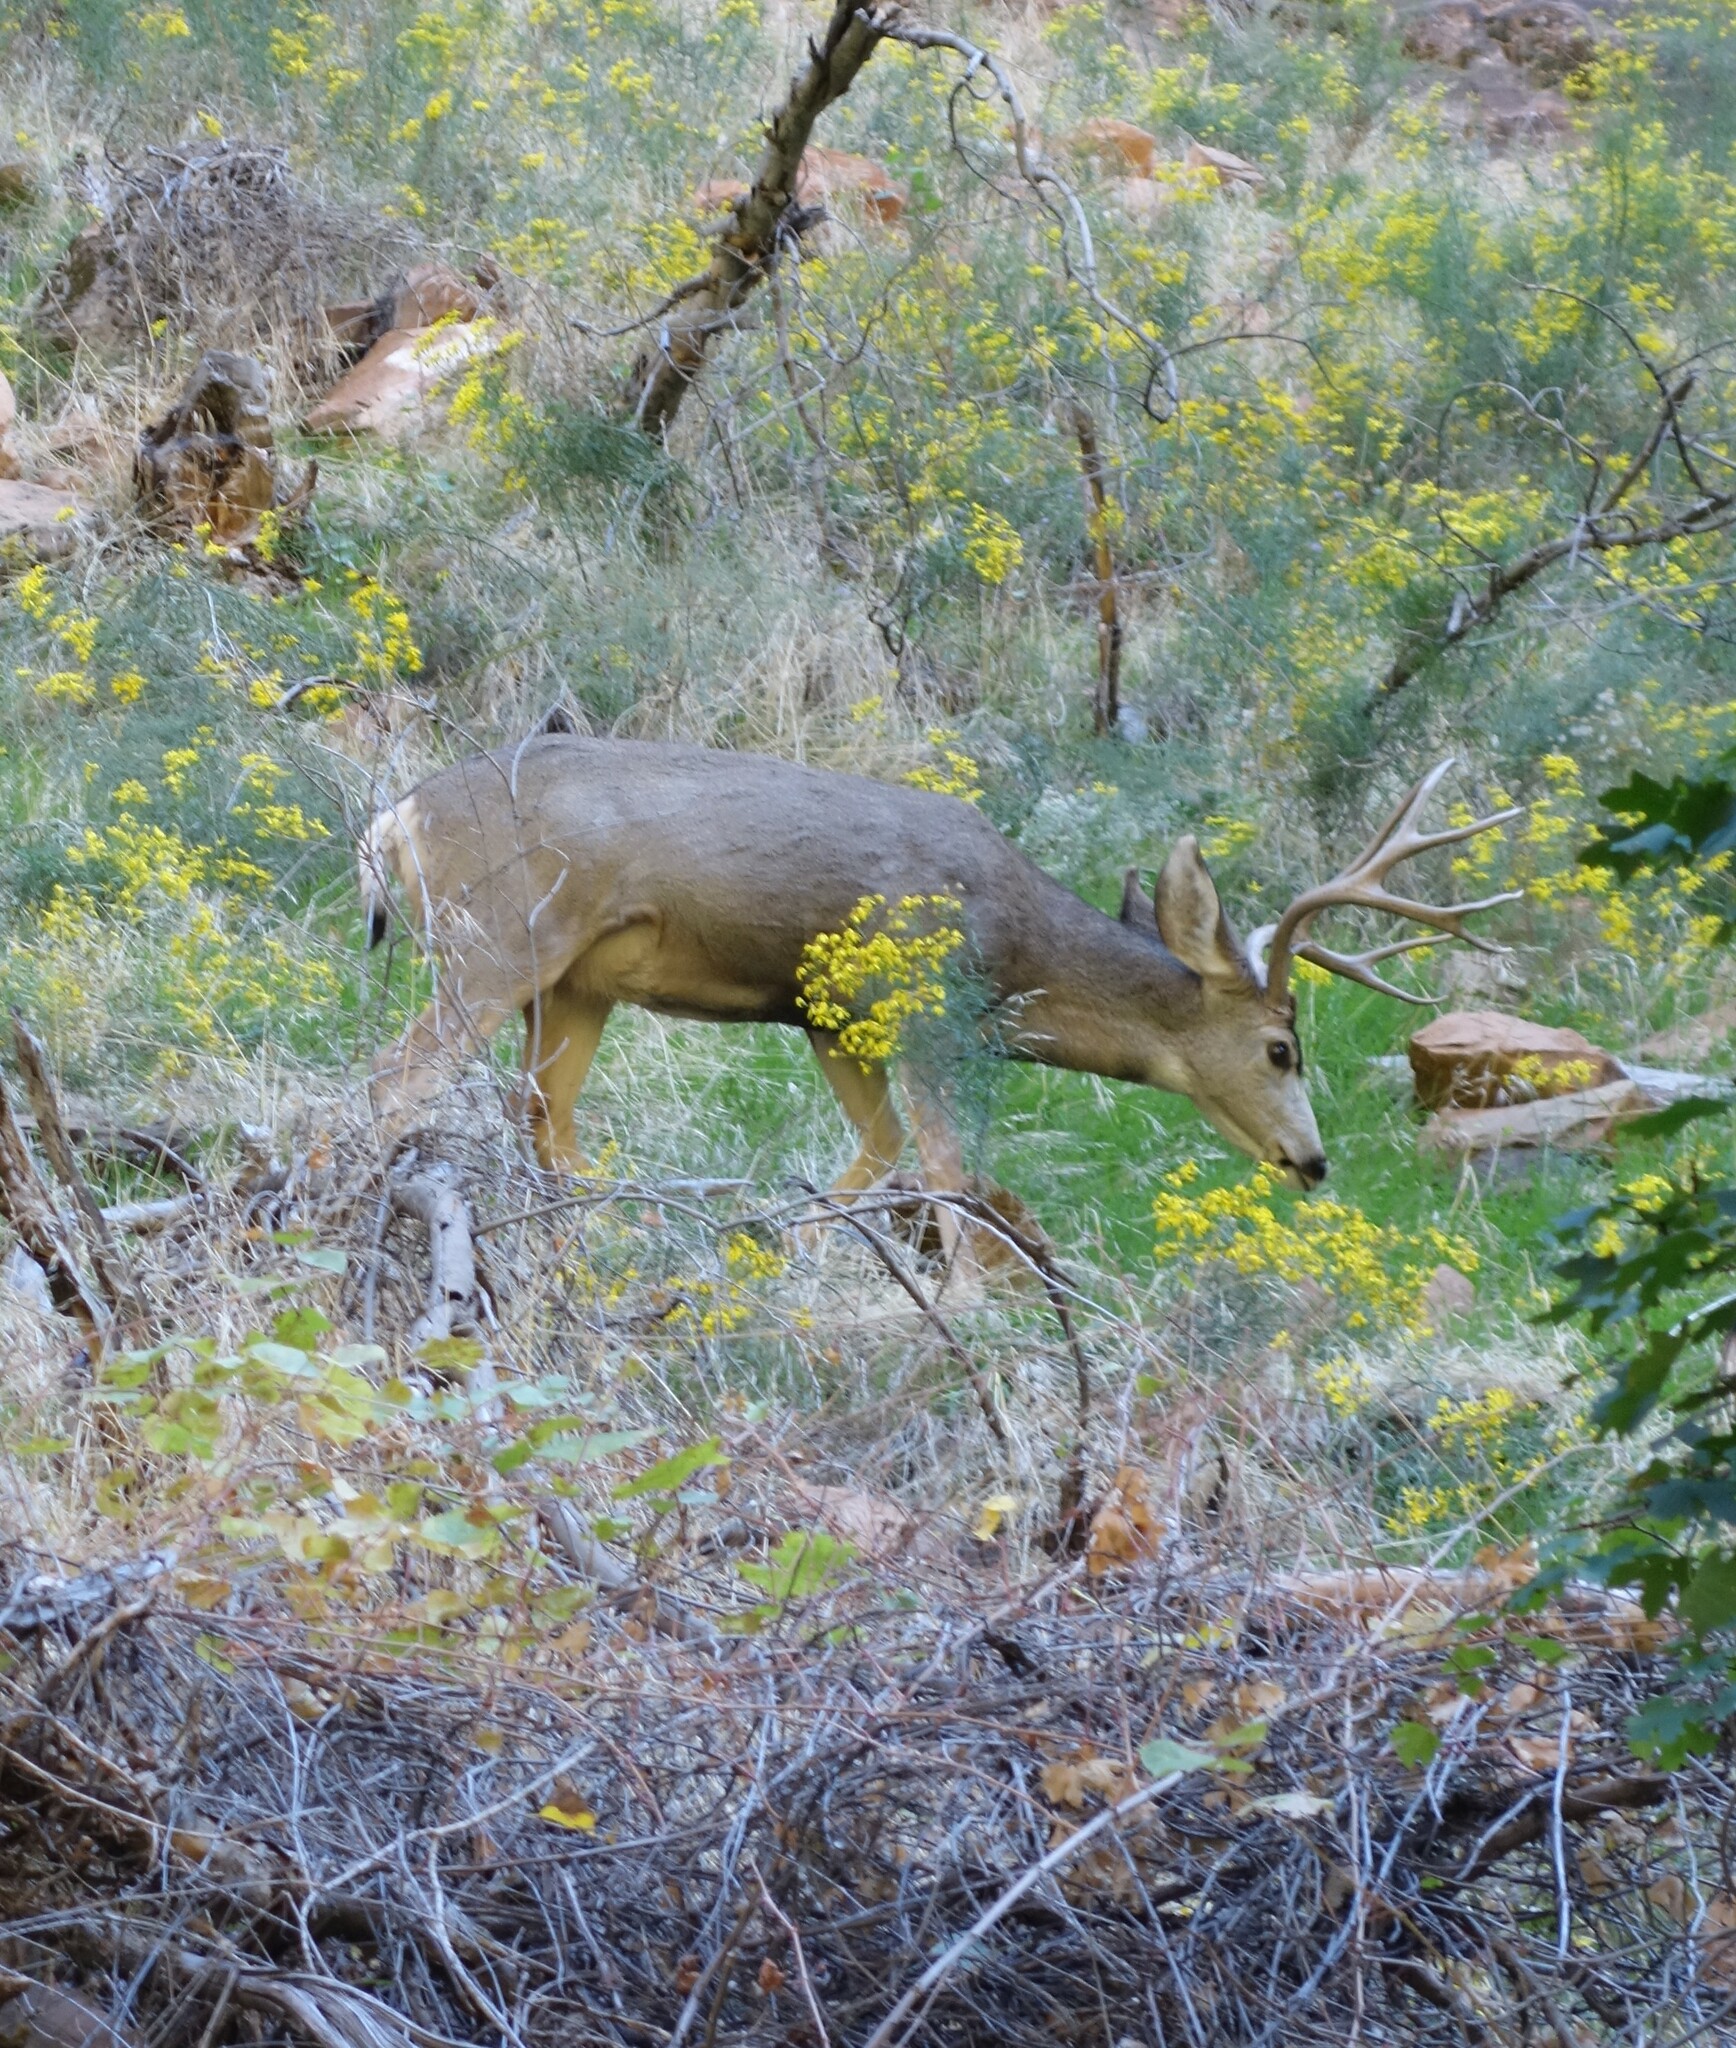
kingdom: Animalia
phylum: Chordata
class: Mammalia
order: Artiodactyla
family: Cervidae
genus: Odocoileus
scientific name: Odocoileus hemionus
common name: Mule deer
